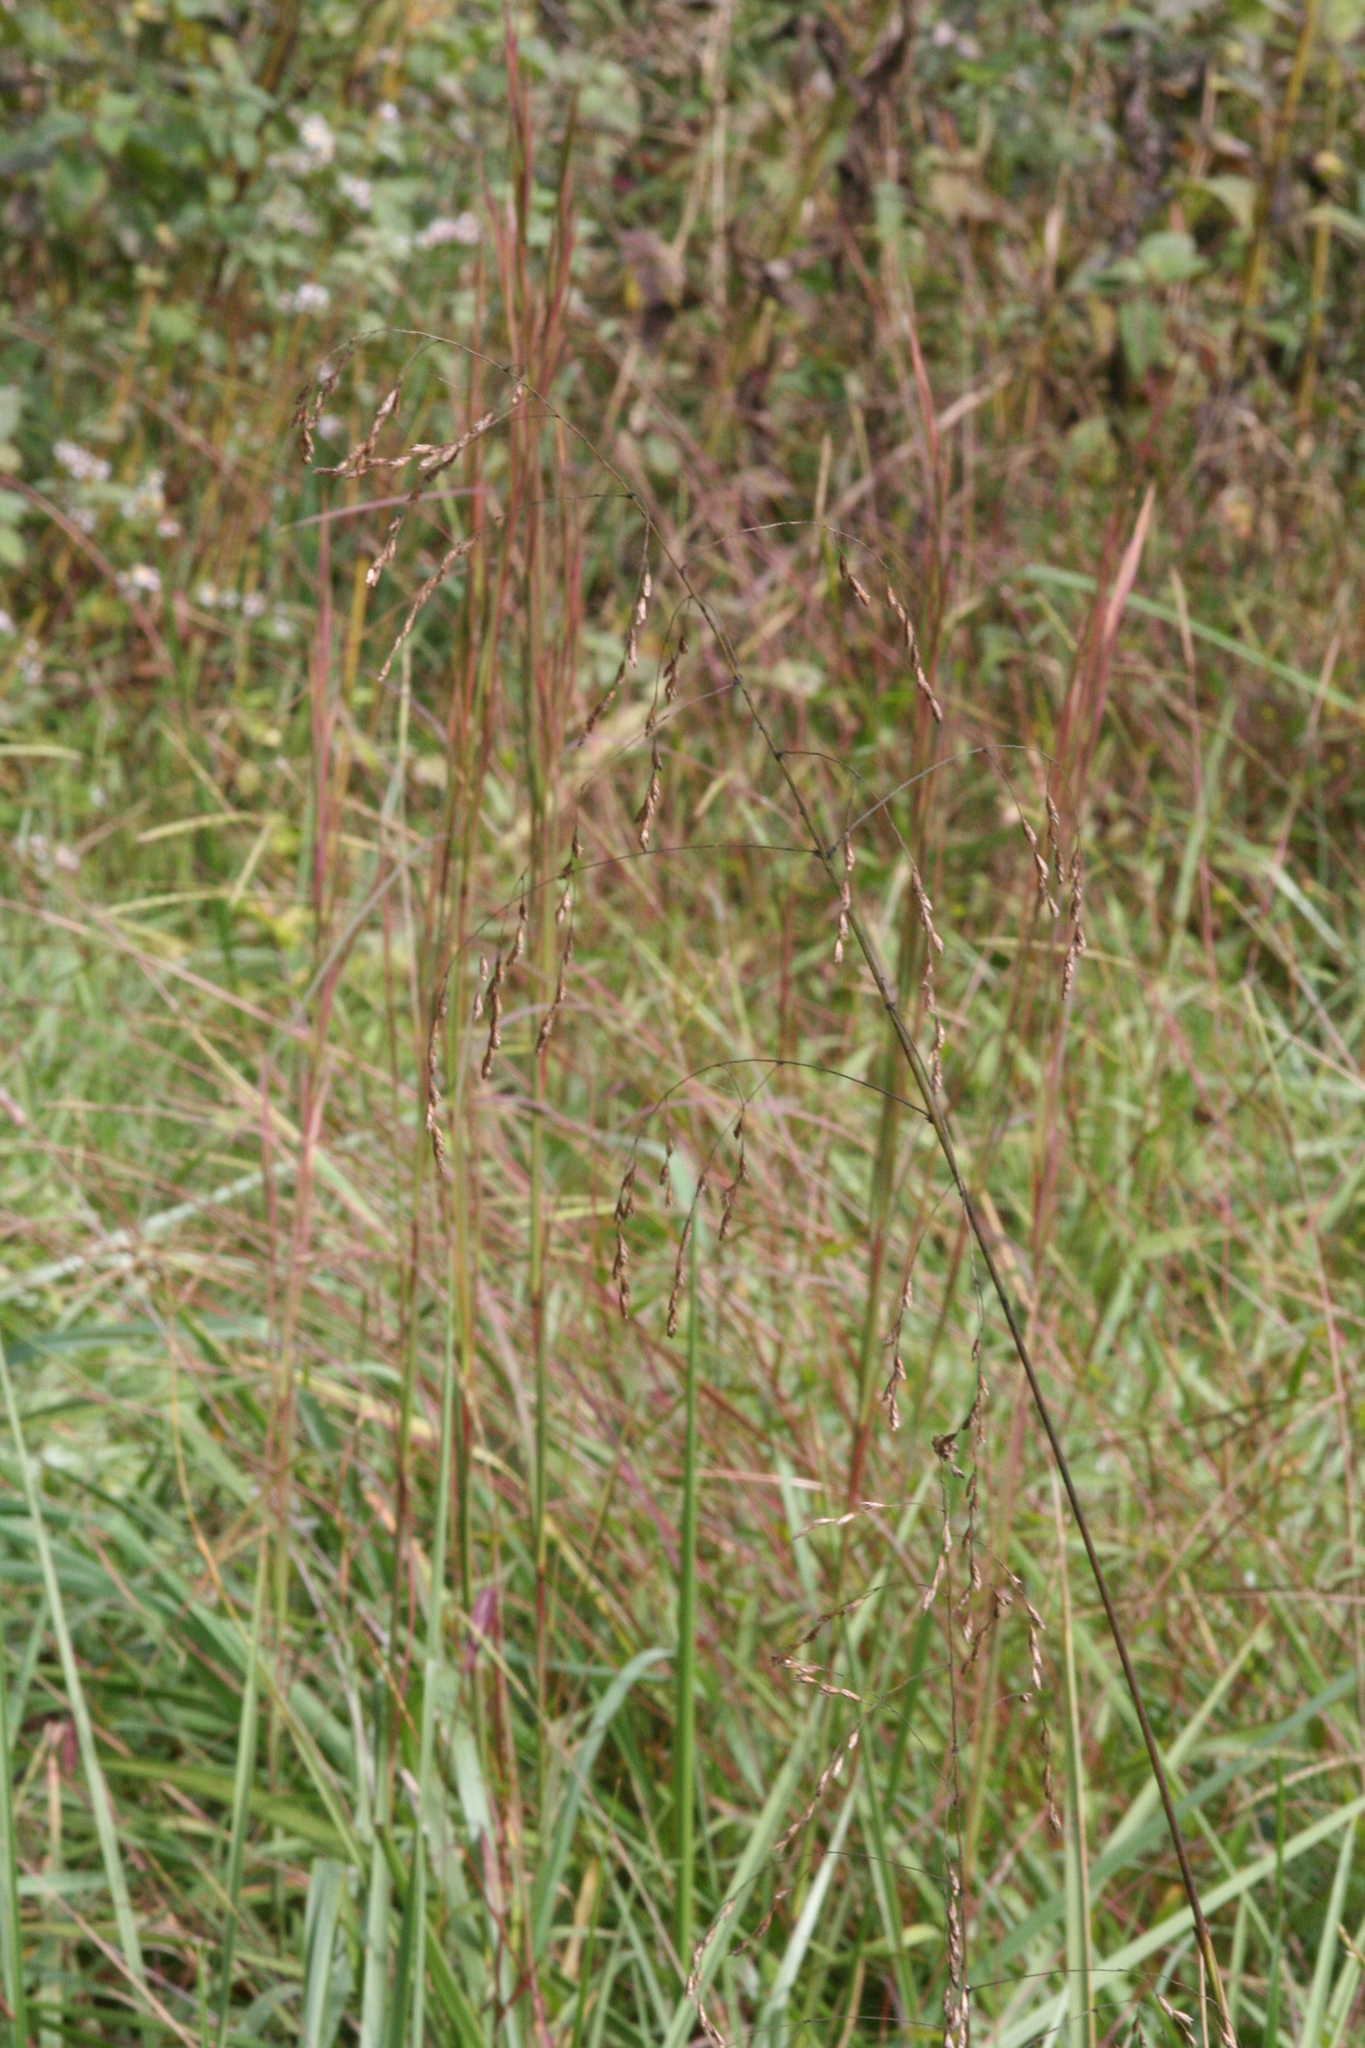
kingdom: Plantae
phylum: Tracheophyta
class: Liliopsida
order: Poales
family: Poaceae
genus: Tridens
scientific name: Tridens flavus
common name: Purpletop
